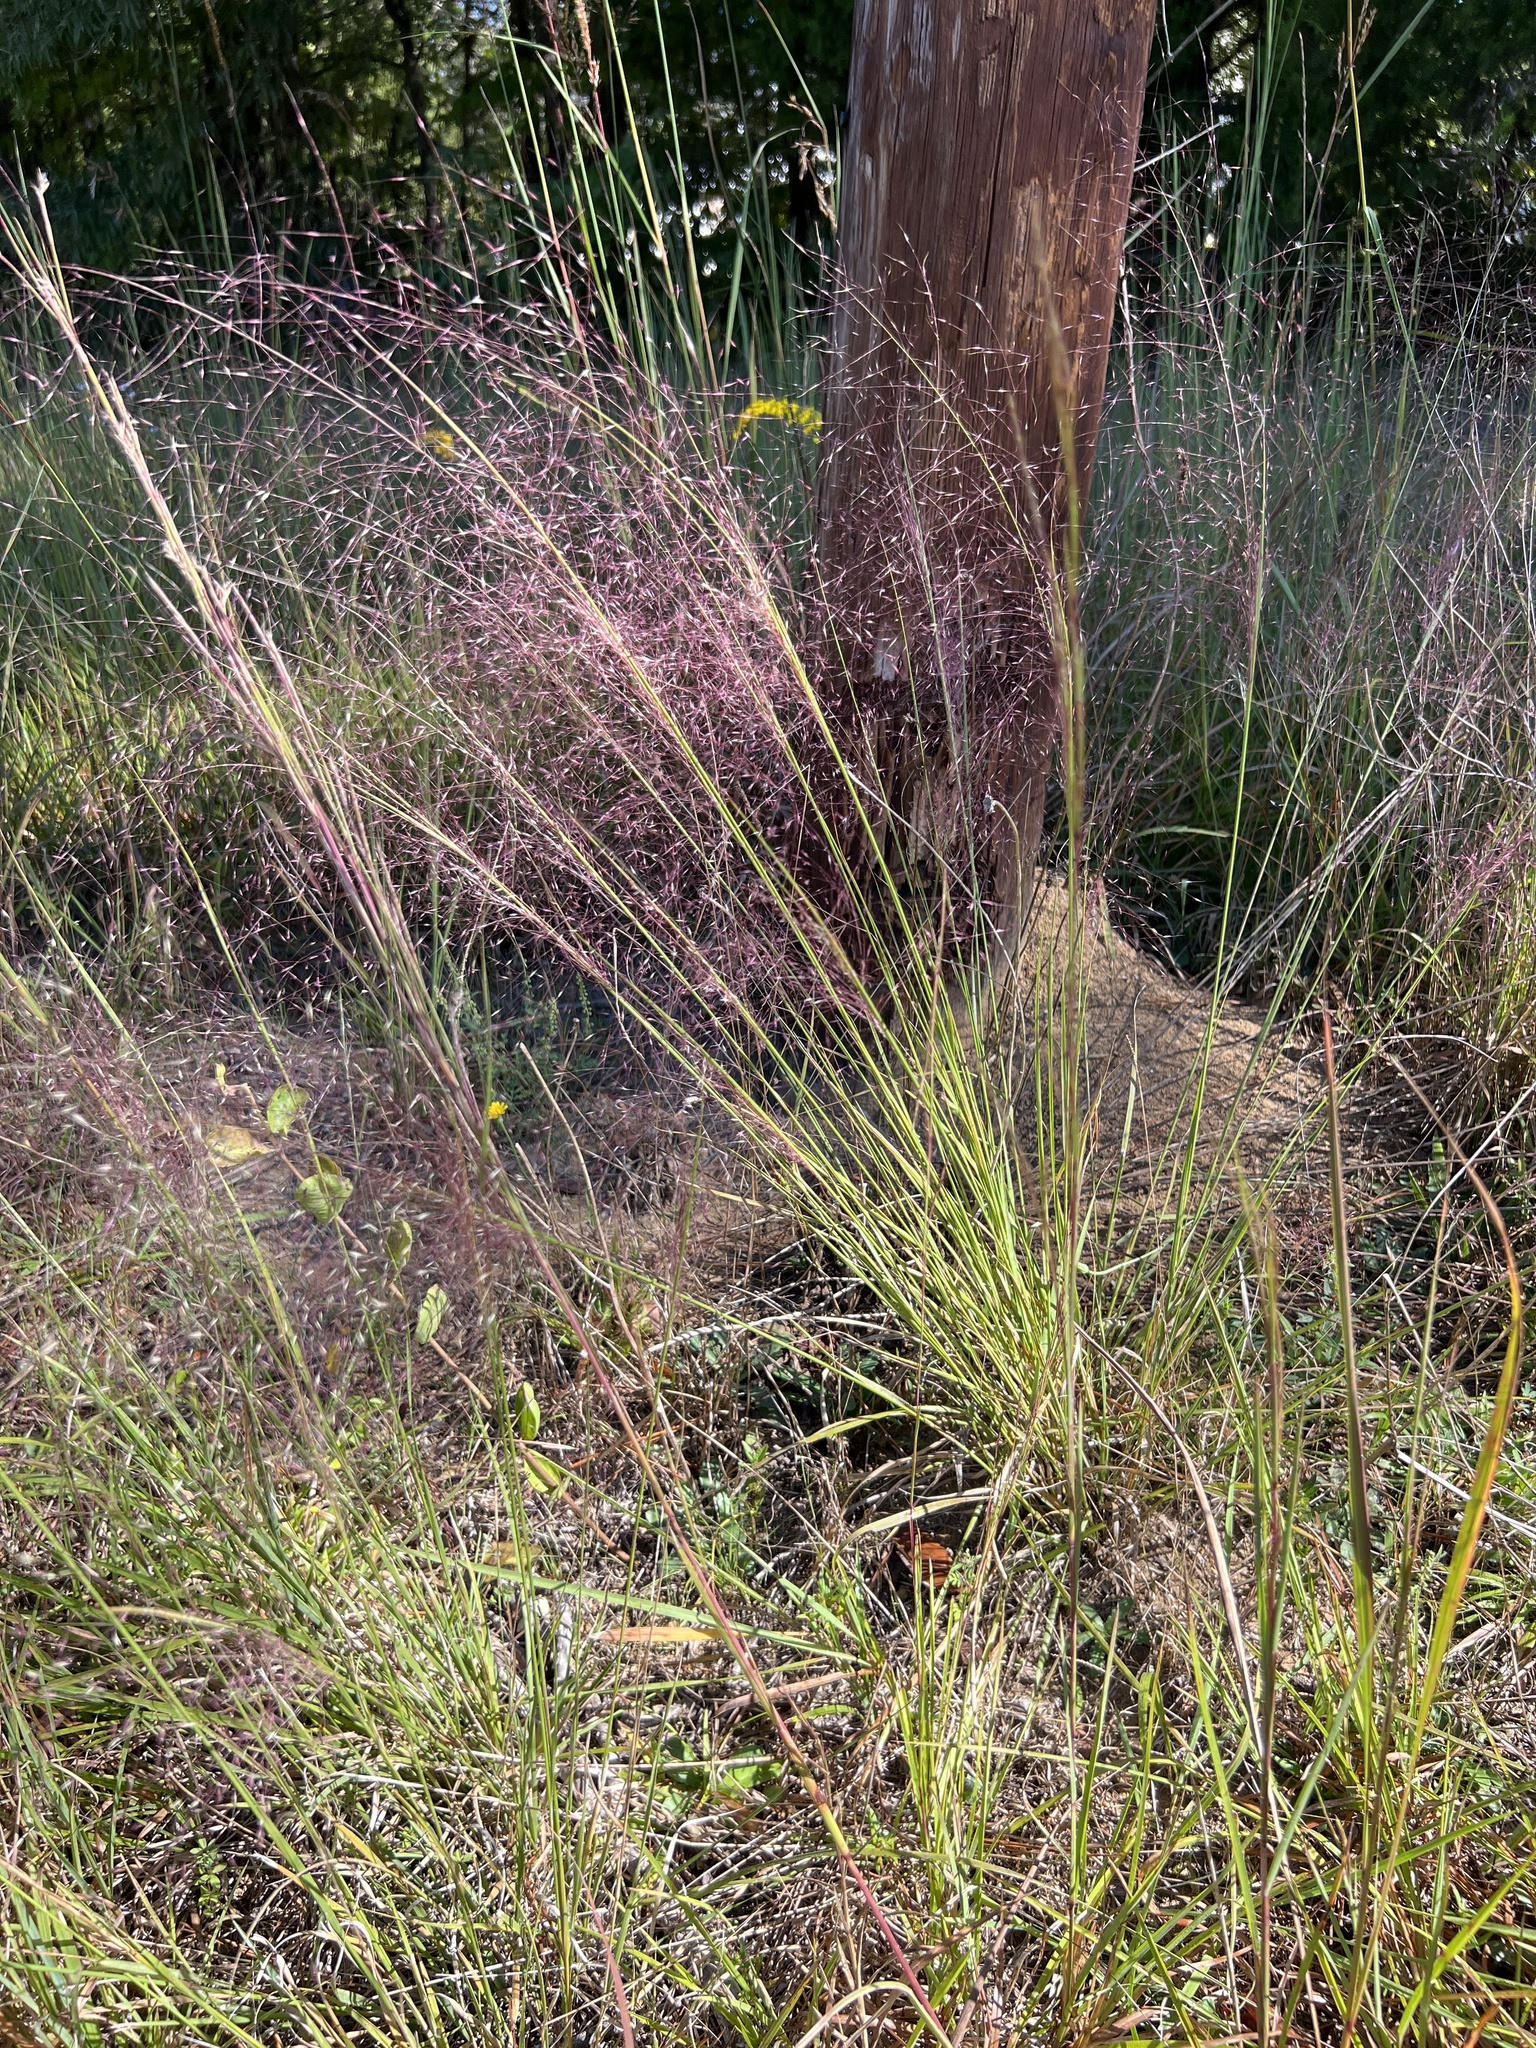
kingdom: Plantae
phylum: Tracheophyta
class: Liliopsida
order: Poales
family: Poaceae
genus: Muhlenbergia
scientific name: Muhlenbergia capillaris
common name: Purple grass
